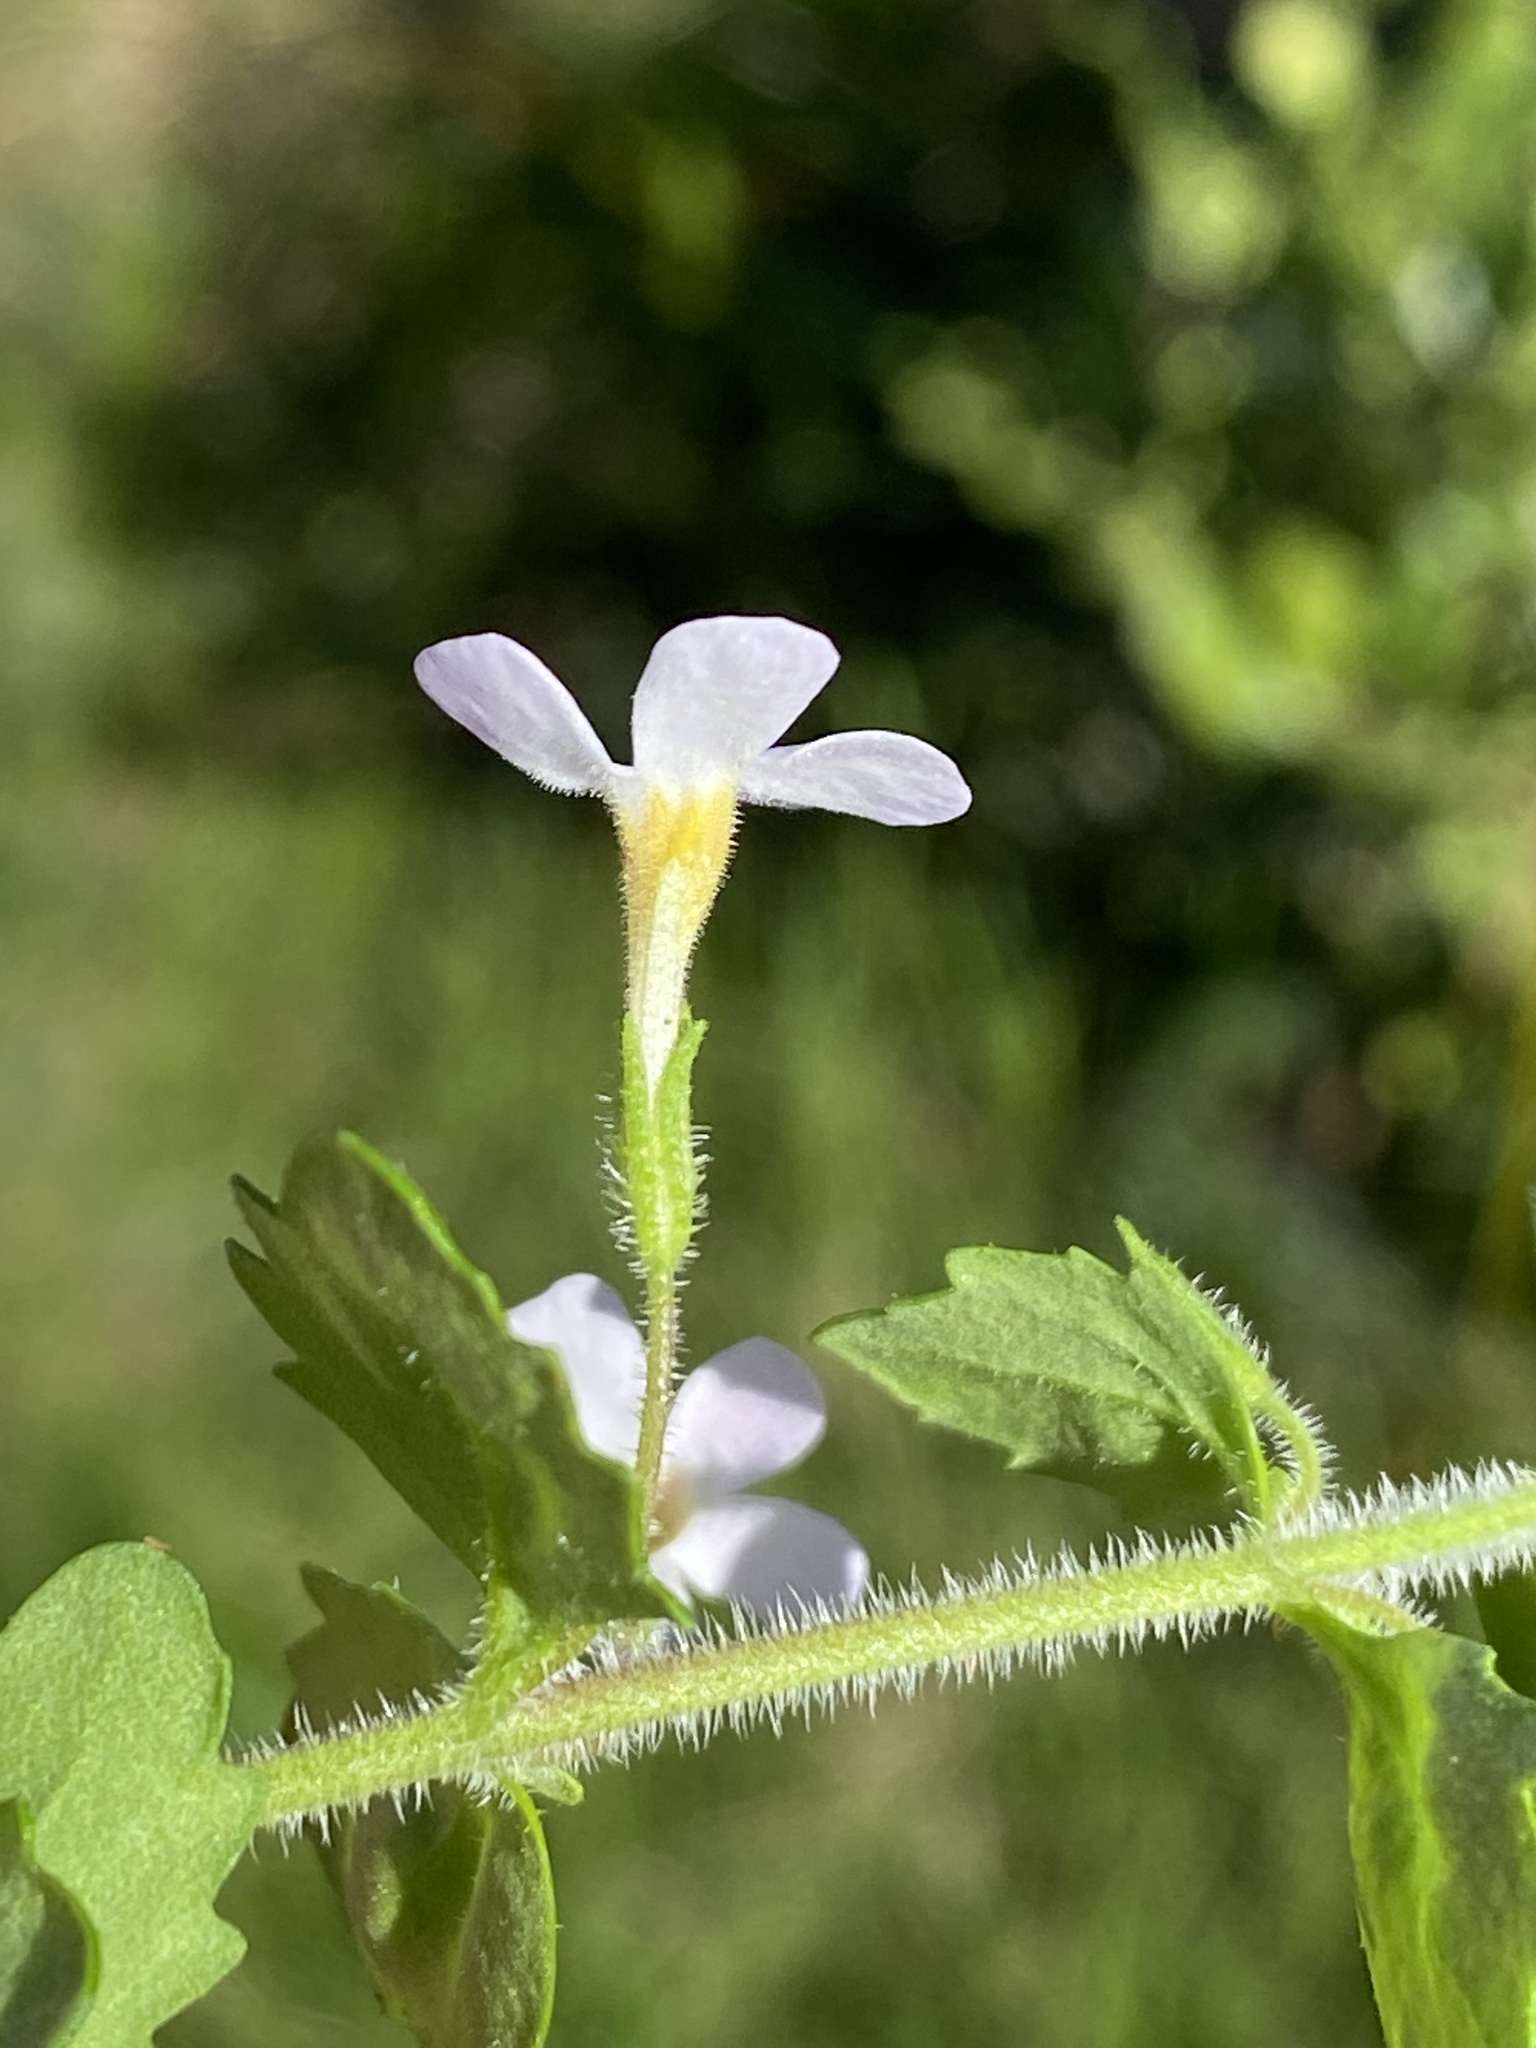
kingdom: Plantae
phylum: Tracheophyta
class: Magnoliopsida
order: Lamiales
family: Scrophulariaceae
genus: Chaenostoma
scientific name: Chaenostoma hispidum
